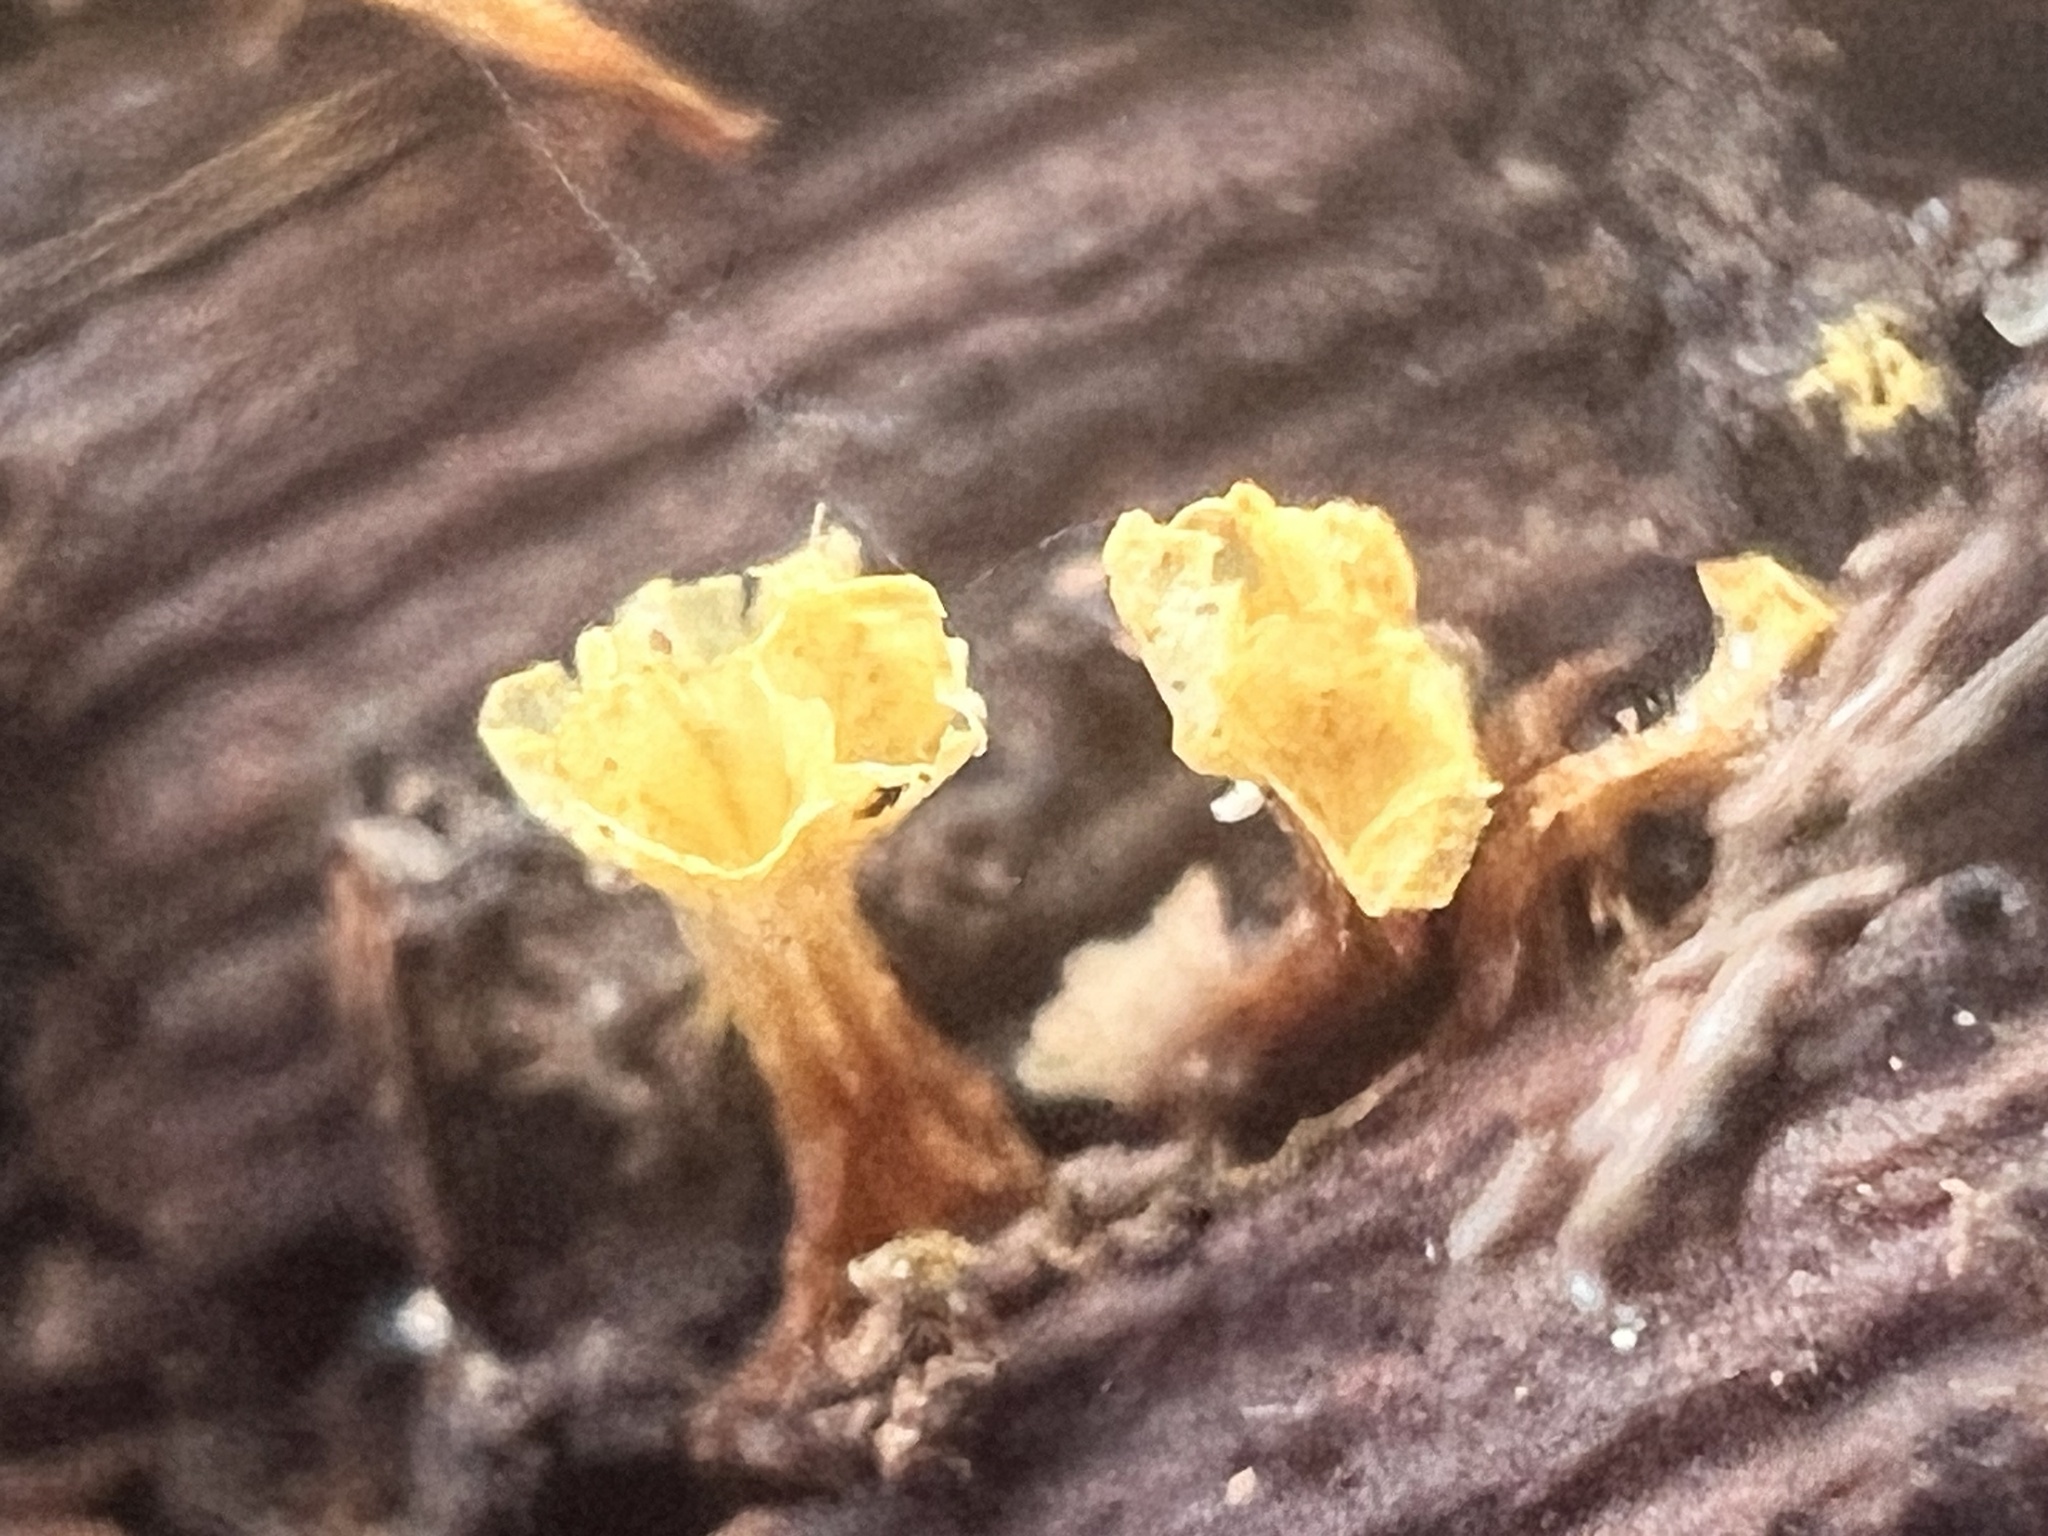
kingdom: Protozoa
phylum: Mycetozoa
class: Myxomycetes
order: Trichiales
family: Trichiaceae
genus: Oligonema
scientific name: Oligonema verrucosum
